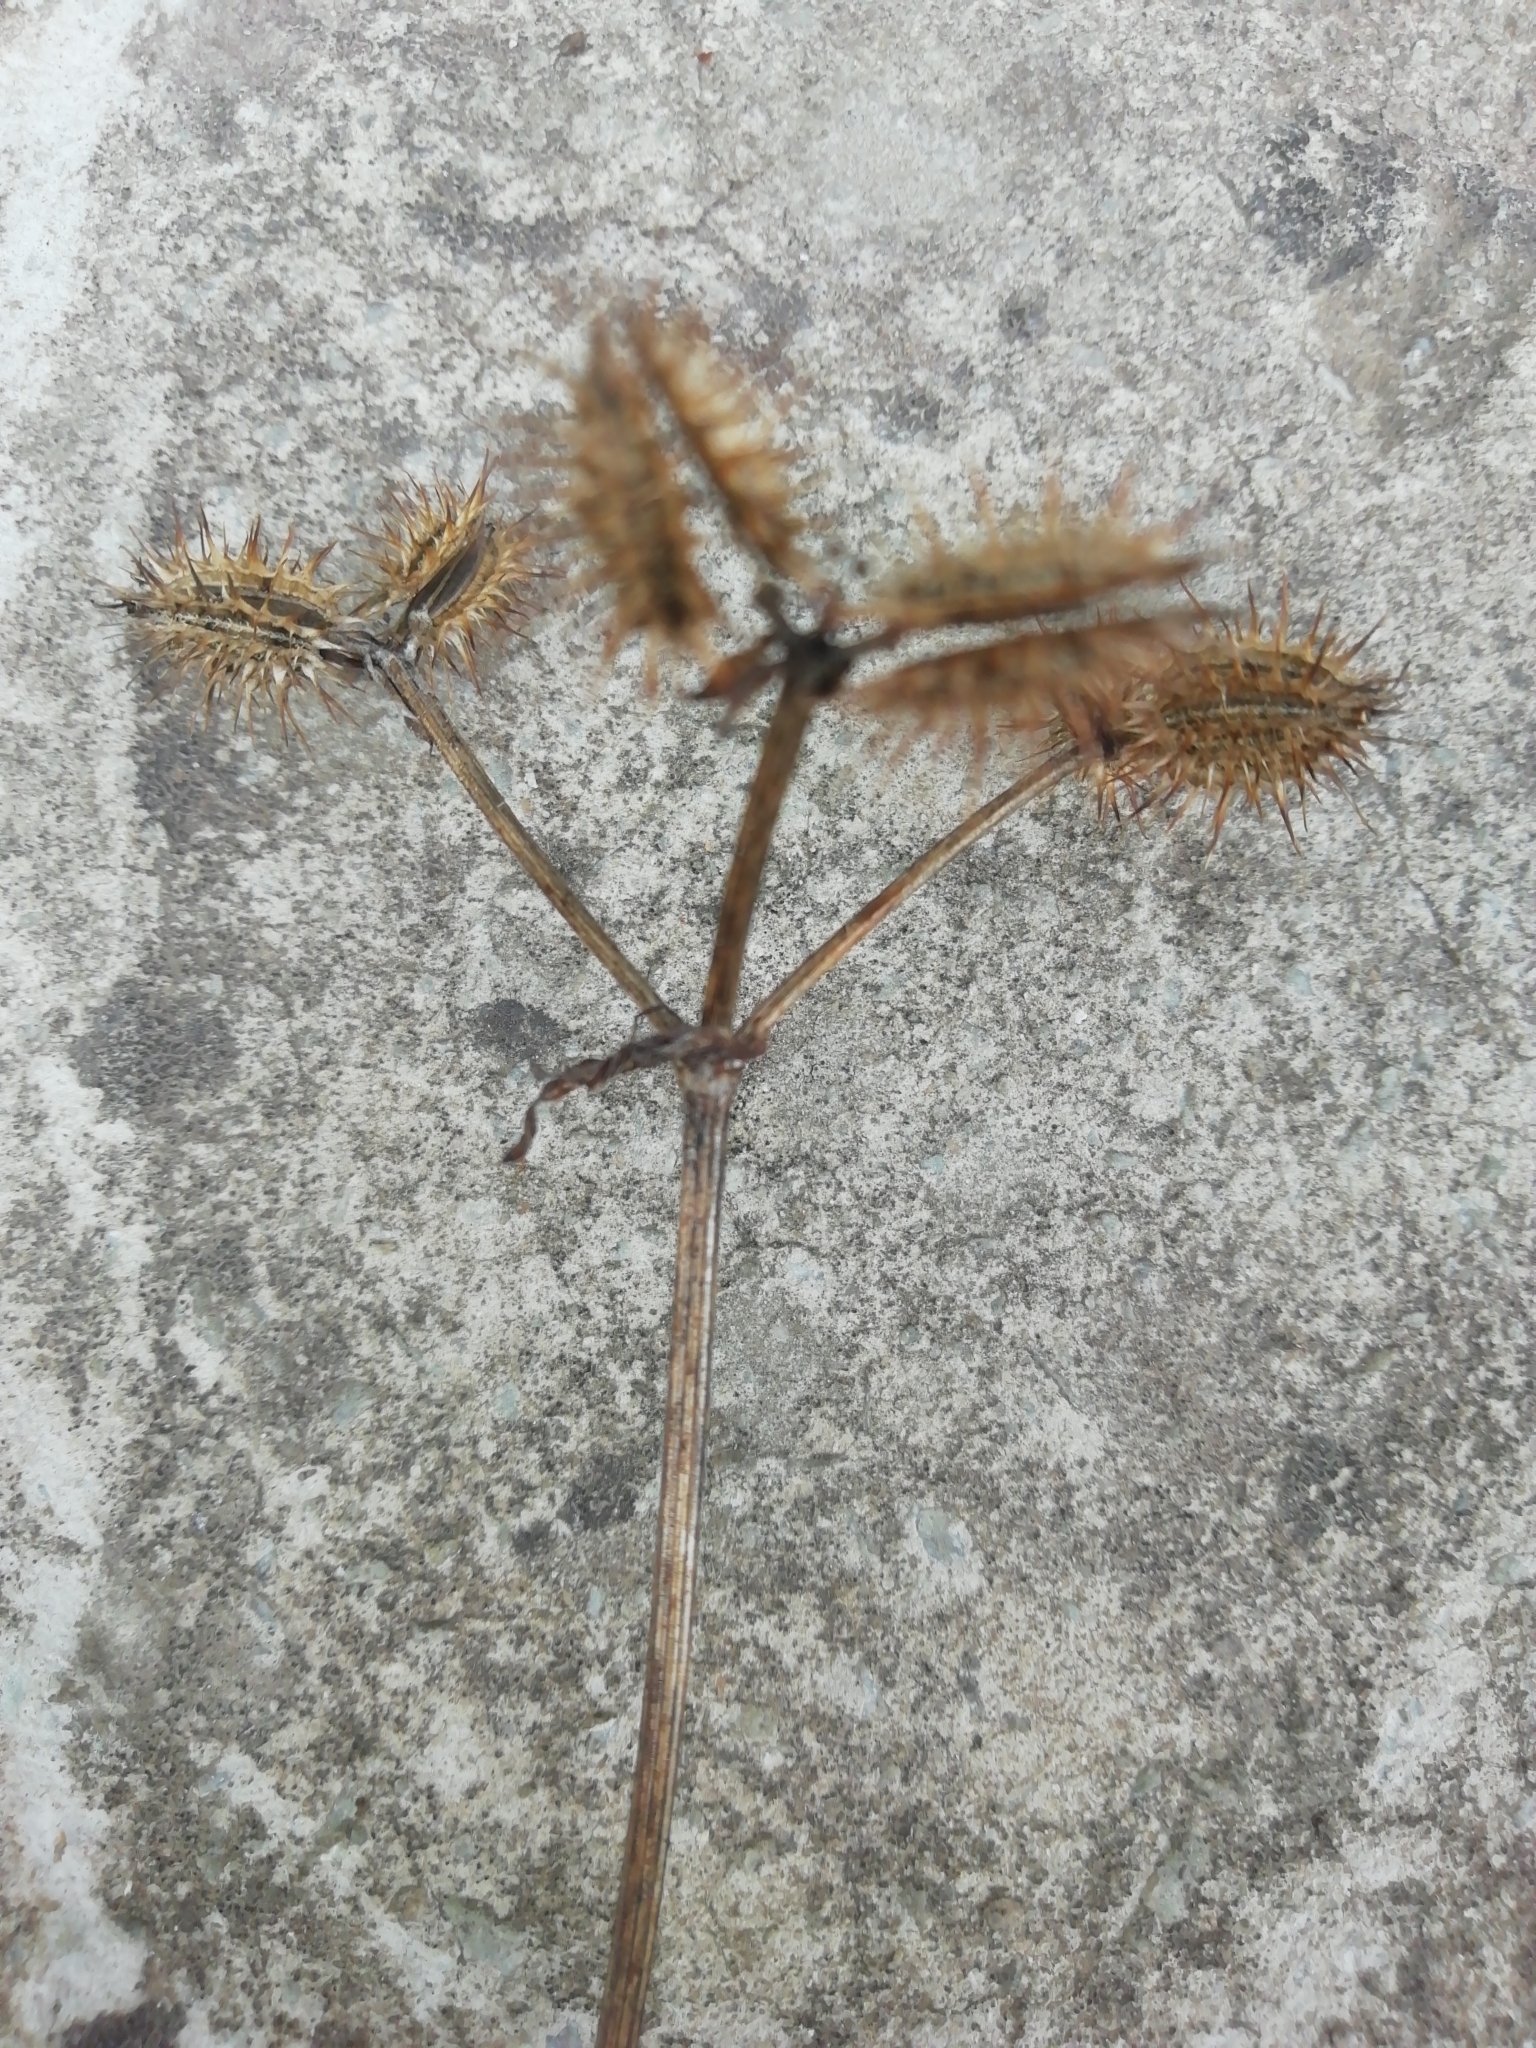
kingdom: Plantae
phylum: Tracheophyta
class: Magnoliopsida
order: Apiales
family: Apiaceae
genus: Turgenia
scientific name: Turgenia latifolia
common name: Greater bur-parsley
